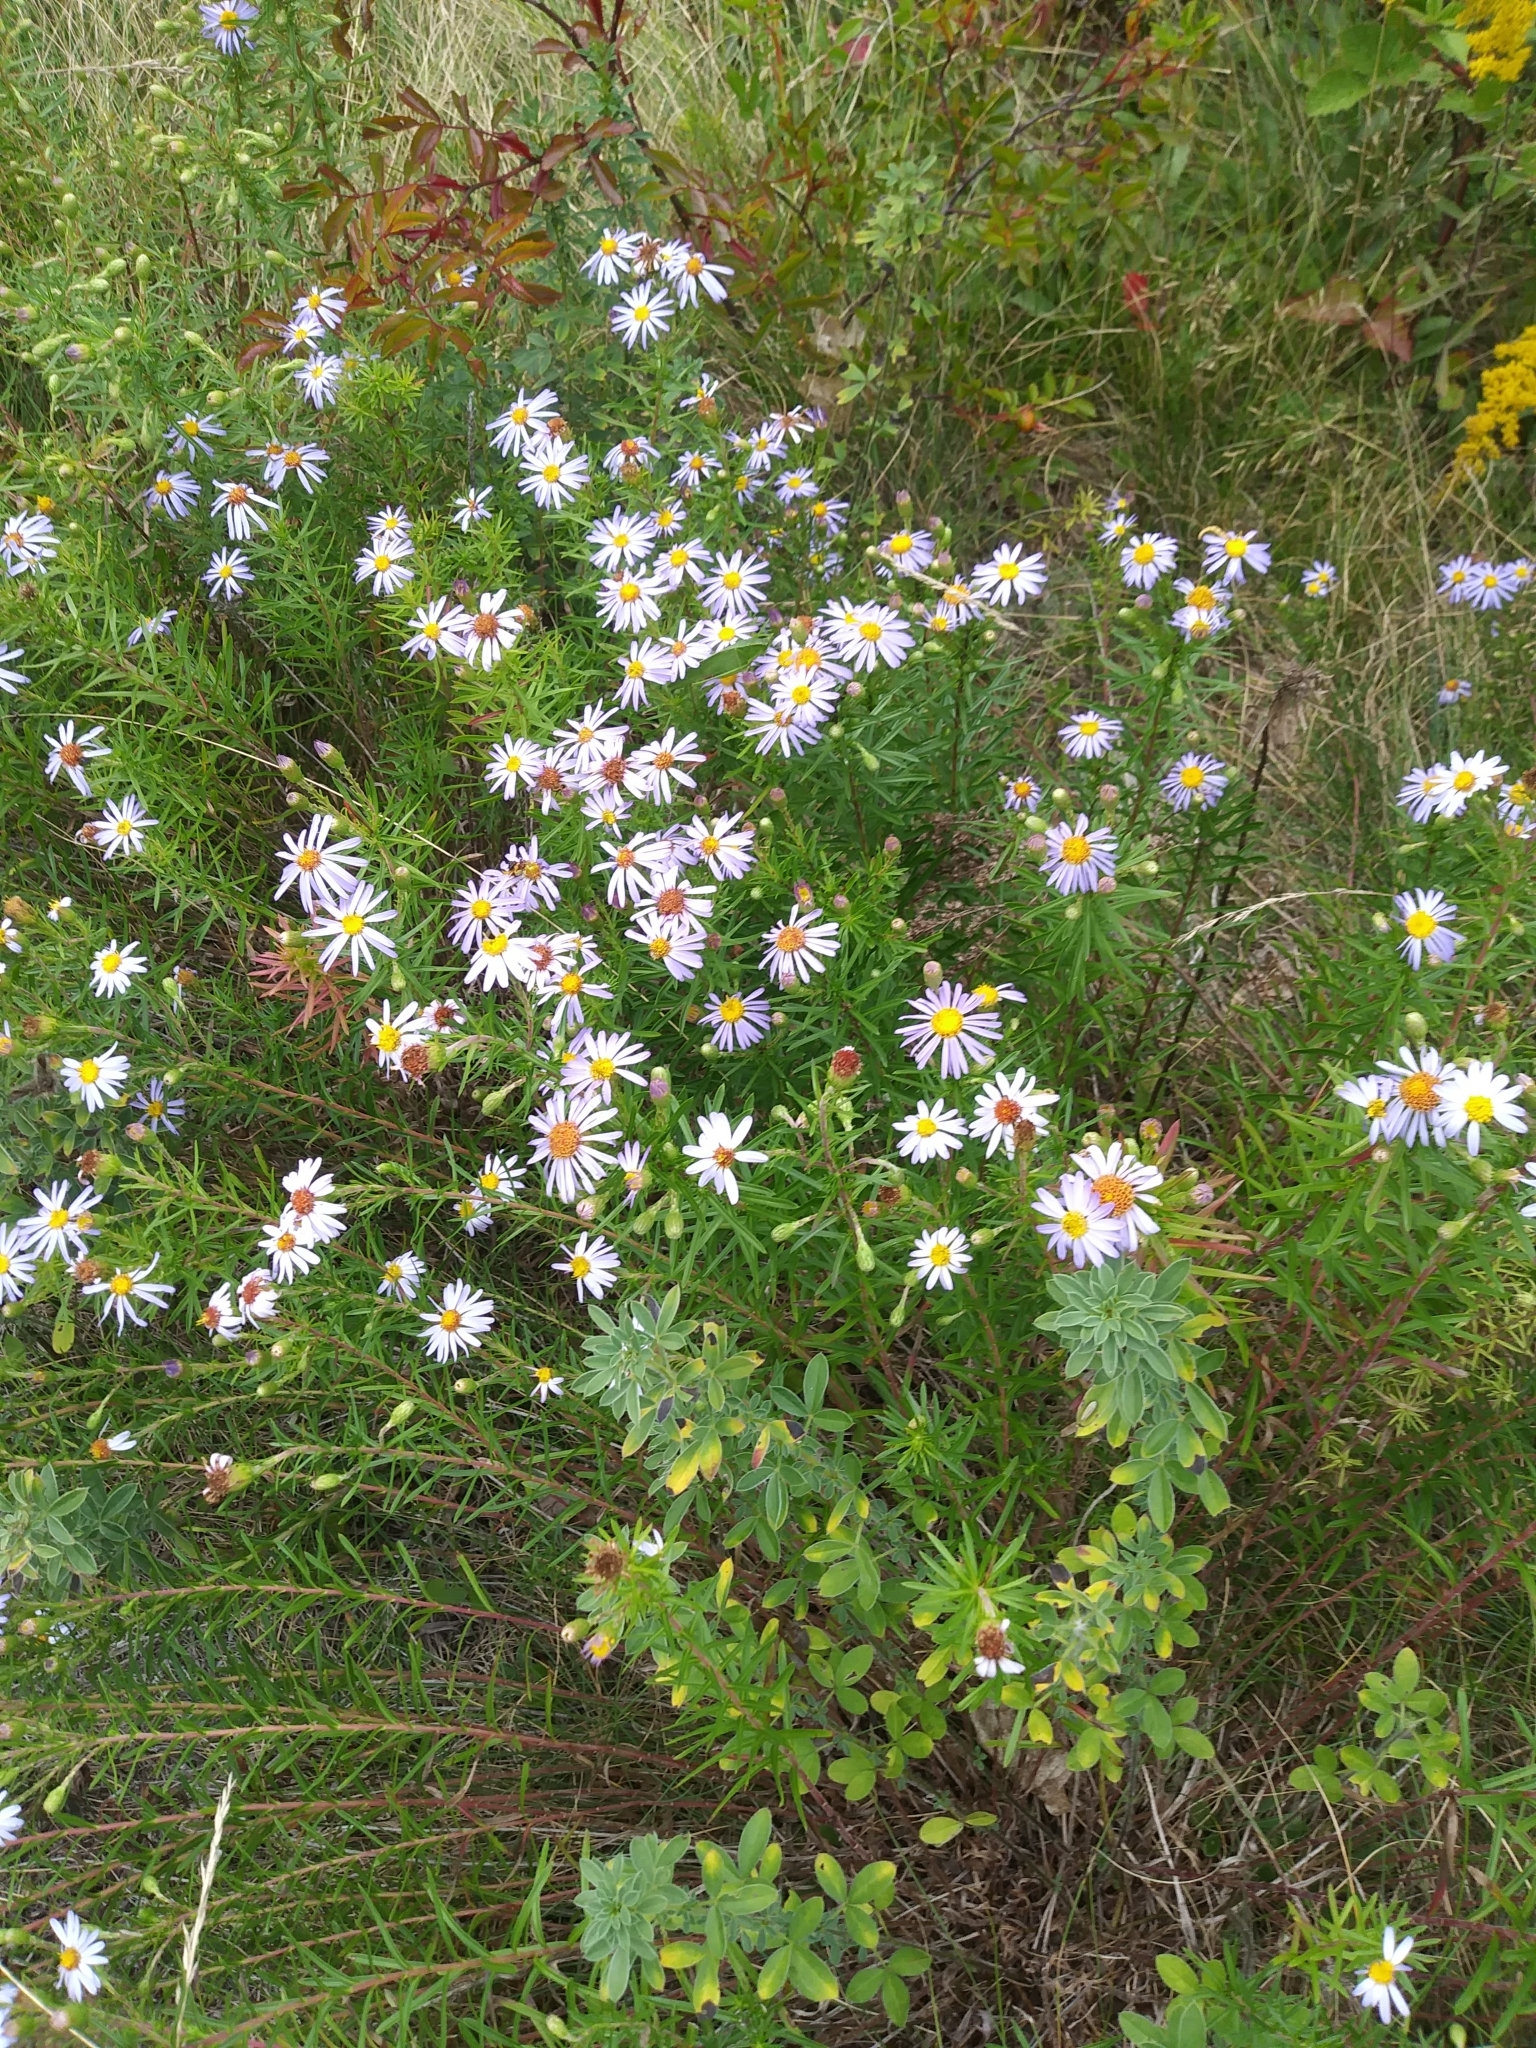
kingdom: Plantae
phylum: Tracheophyta
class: Magnoliopsida
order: Asterales
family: Asteraceae
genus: Ionactis
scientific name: Ionactis linariifolia
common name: Flax-leaf aster
